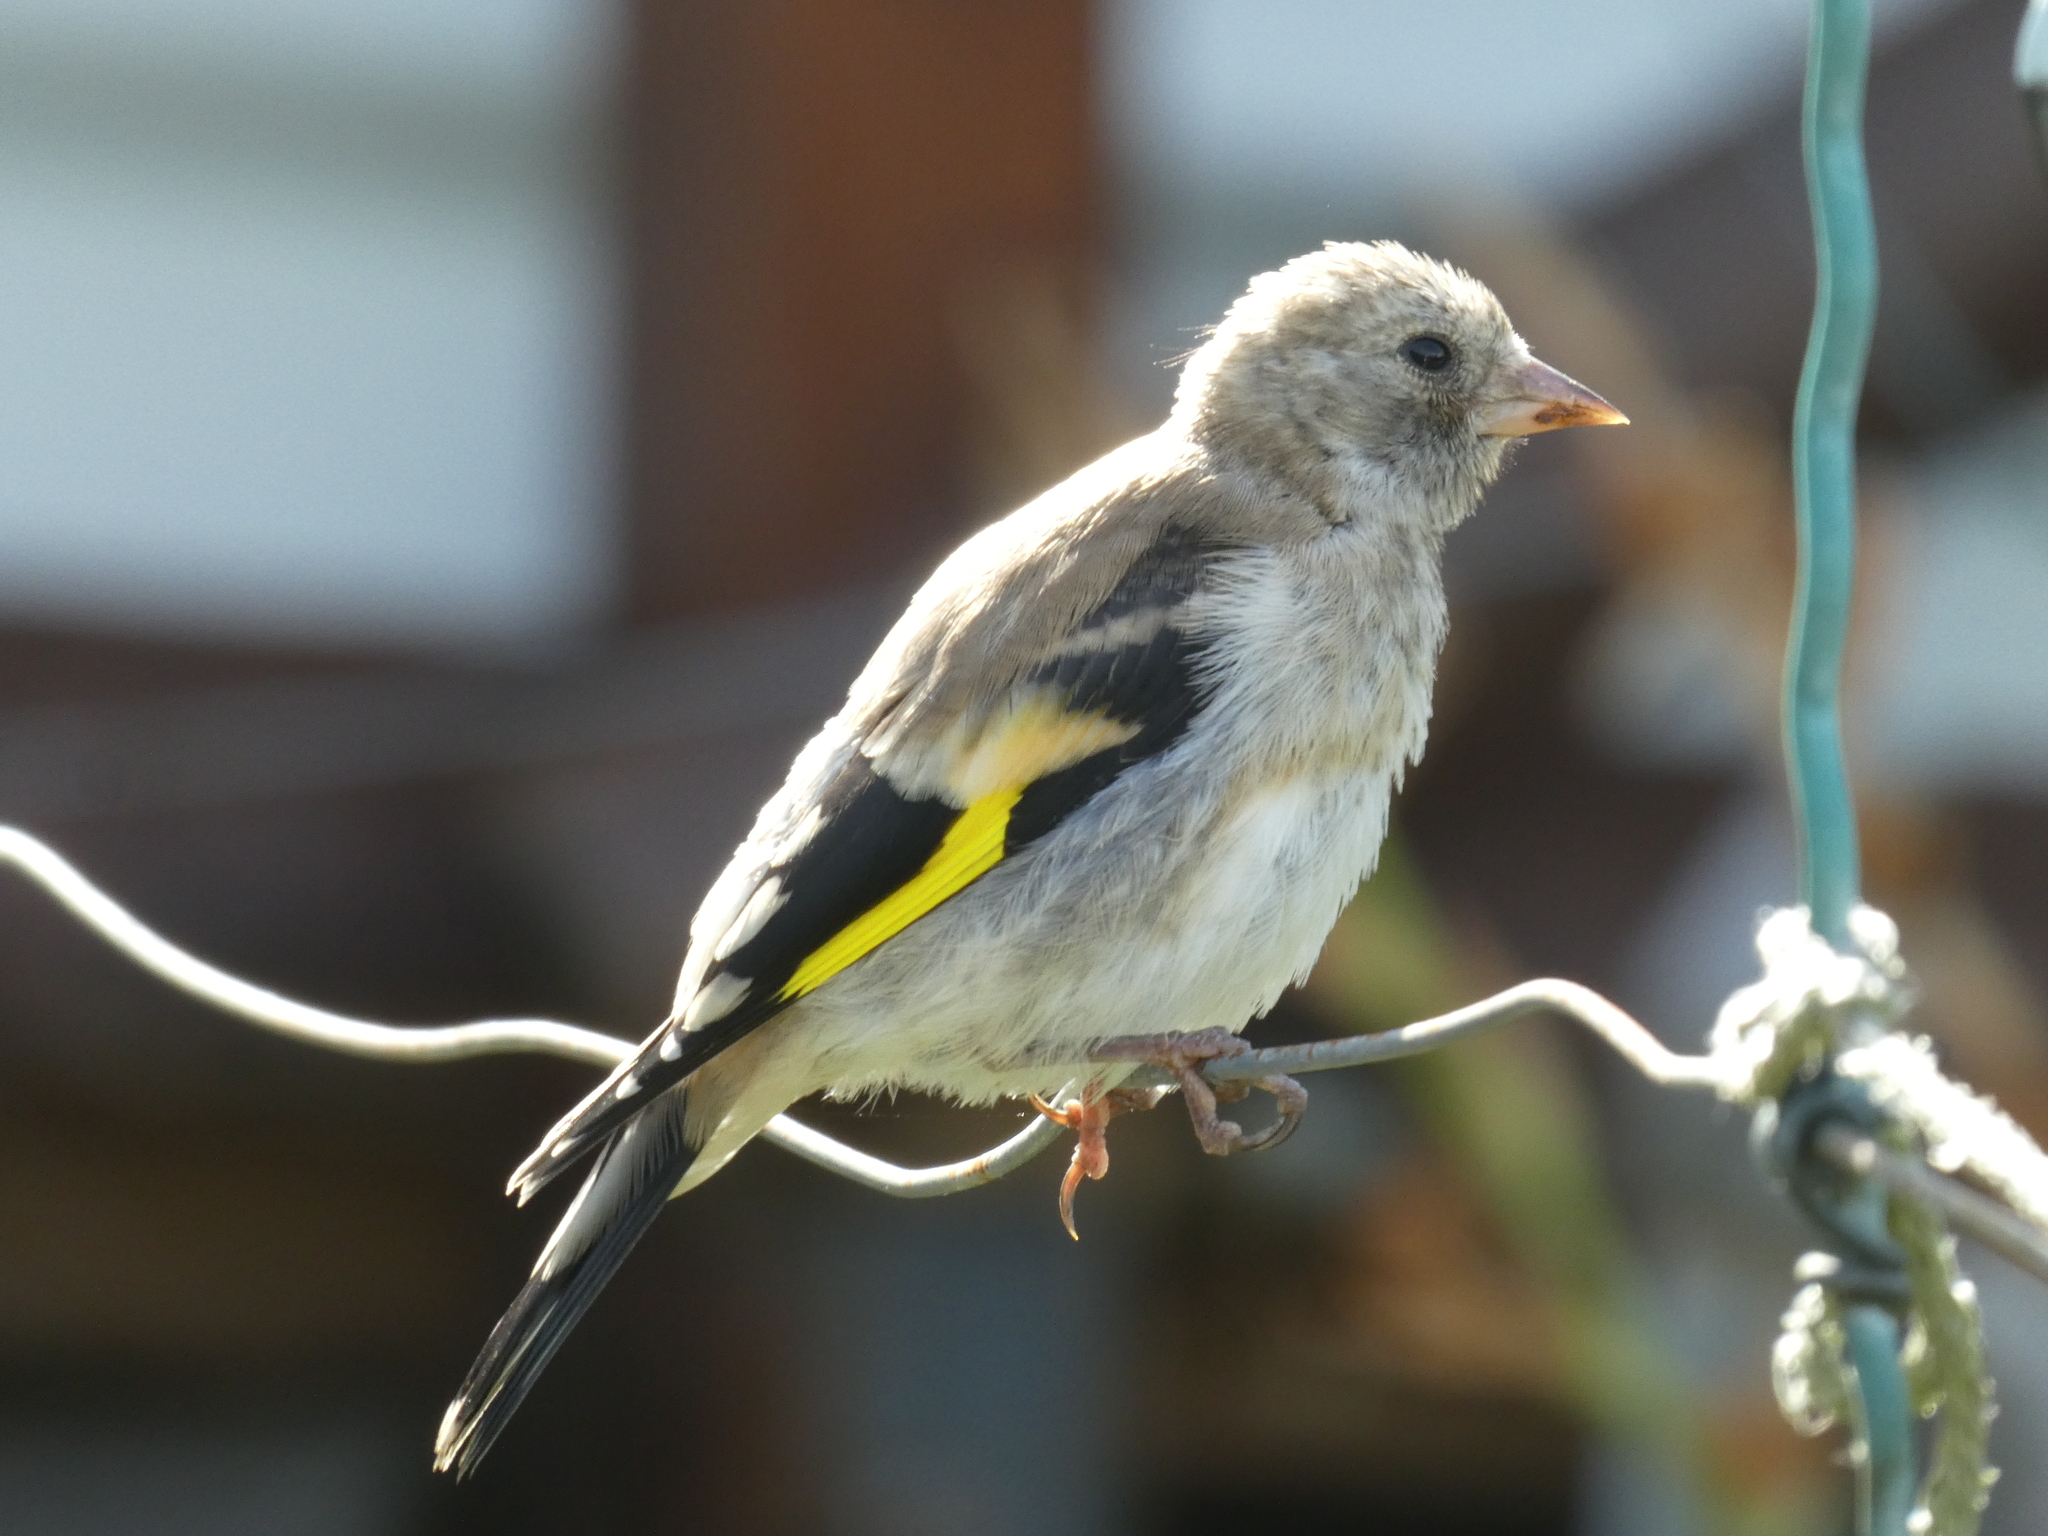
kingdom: Animalia
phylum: Chordata
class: Aves
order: Passeriformes
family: Fringillidae
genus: Carduelis
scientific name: Carduelis carduelis
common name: European goldfinch
